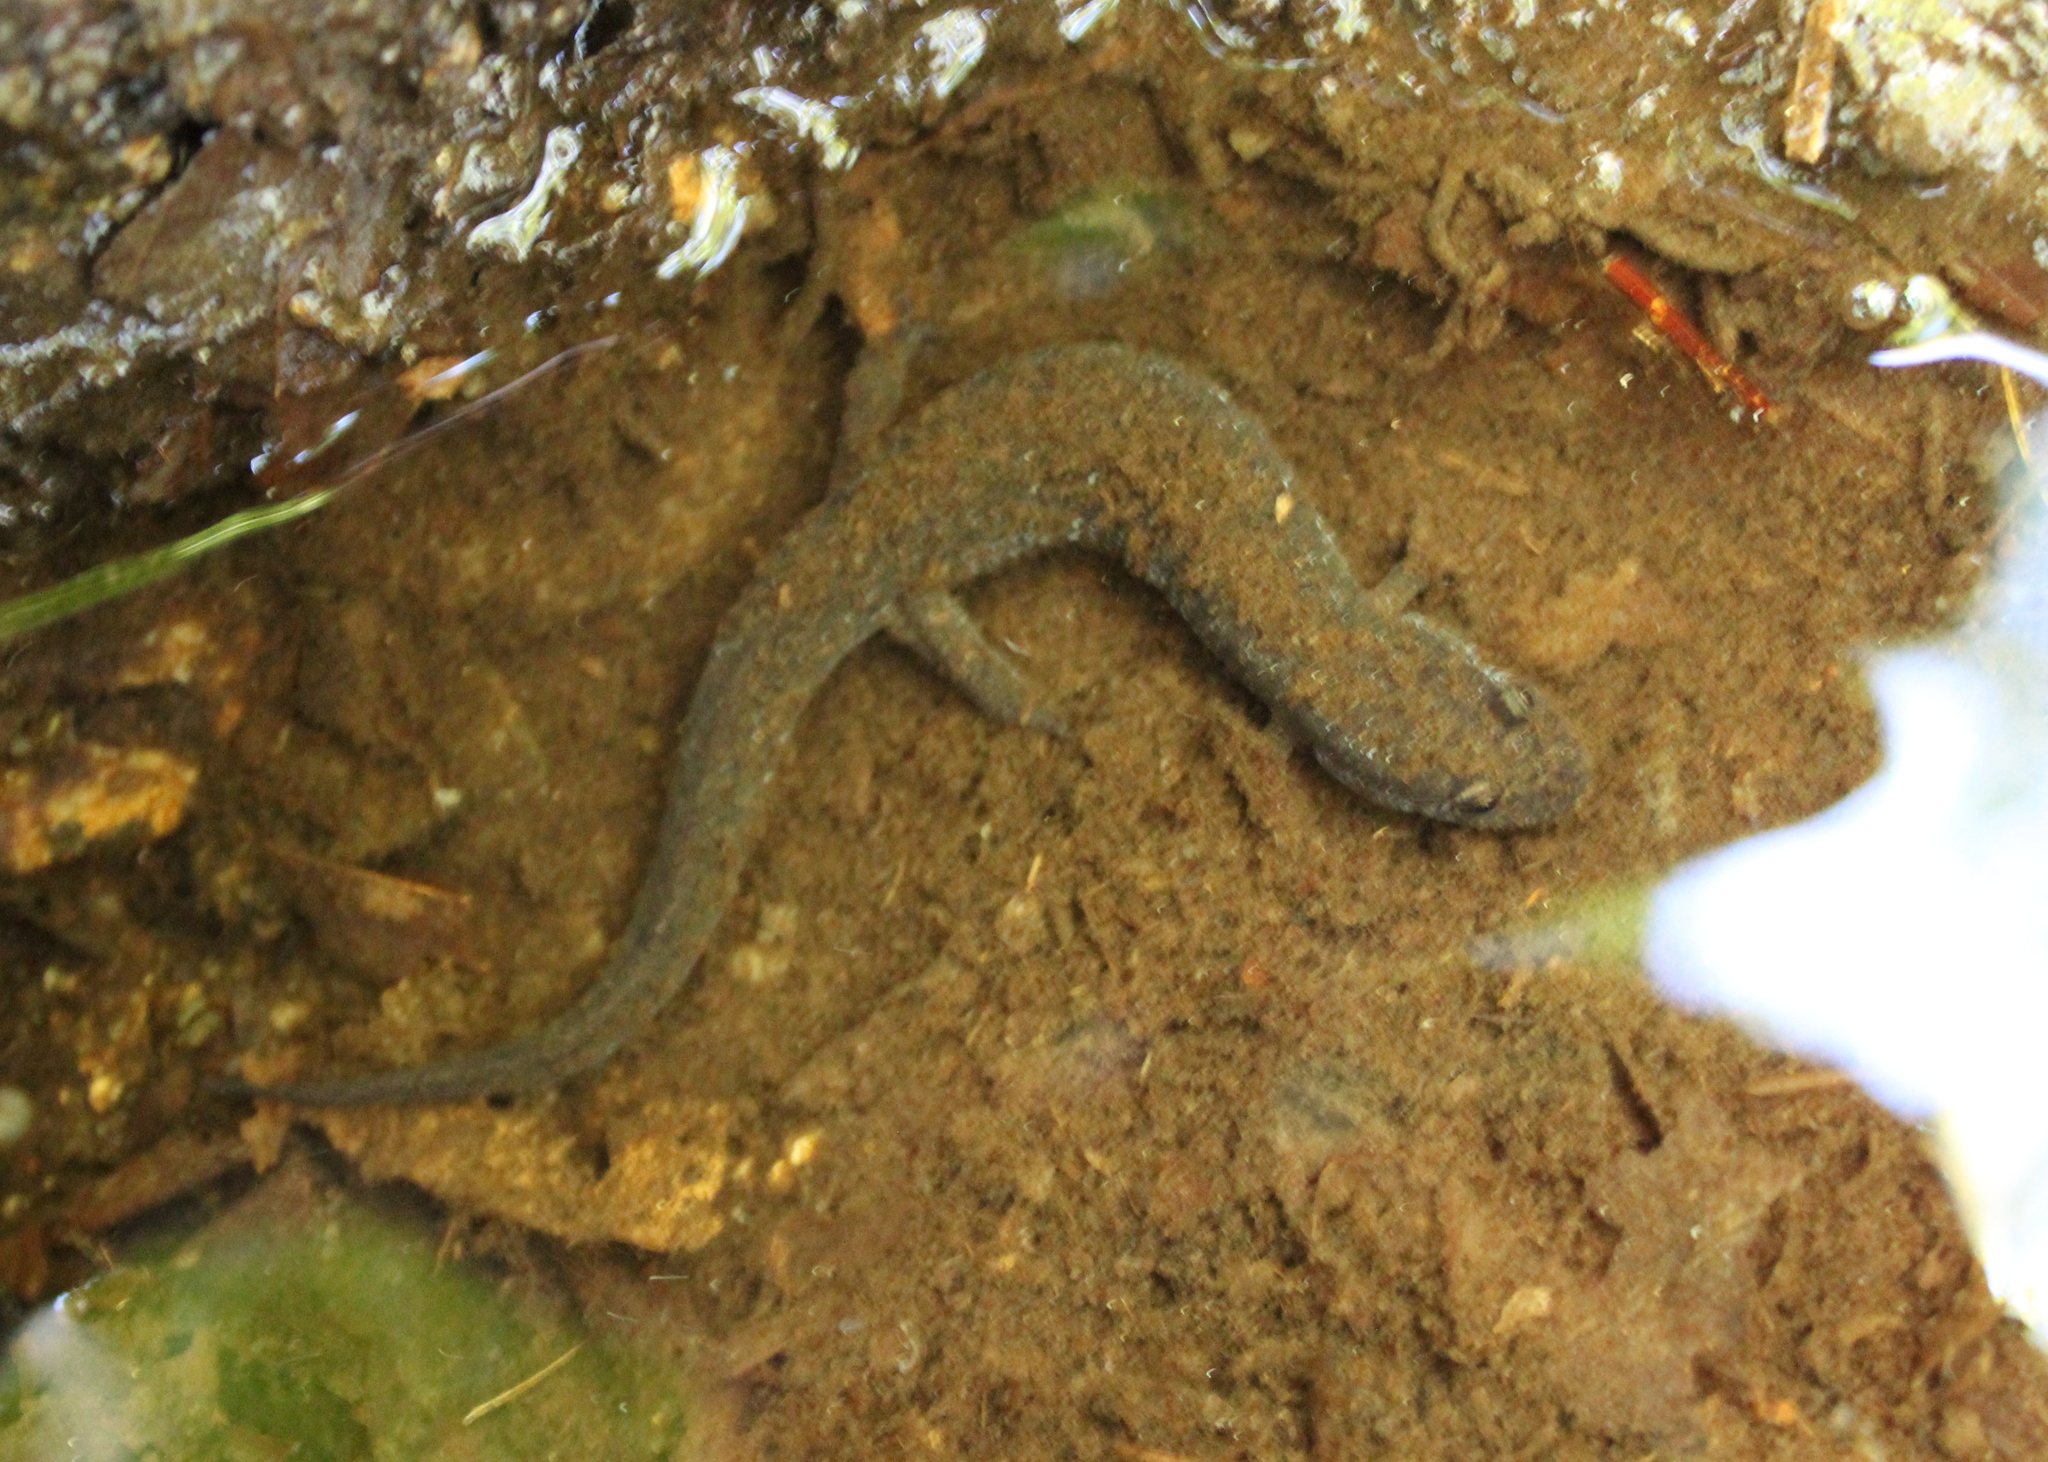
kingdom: Animalia
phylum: Chordata
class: Amphibia
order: Caudata
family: Plethodontidae
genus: Desmognathus
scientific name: Desmognathus fuscus
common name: Northern dusky salamander
